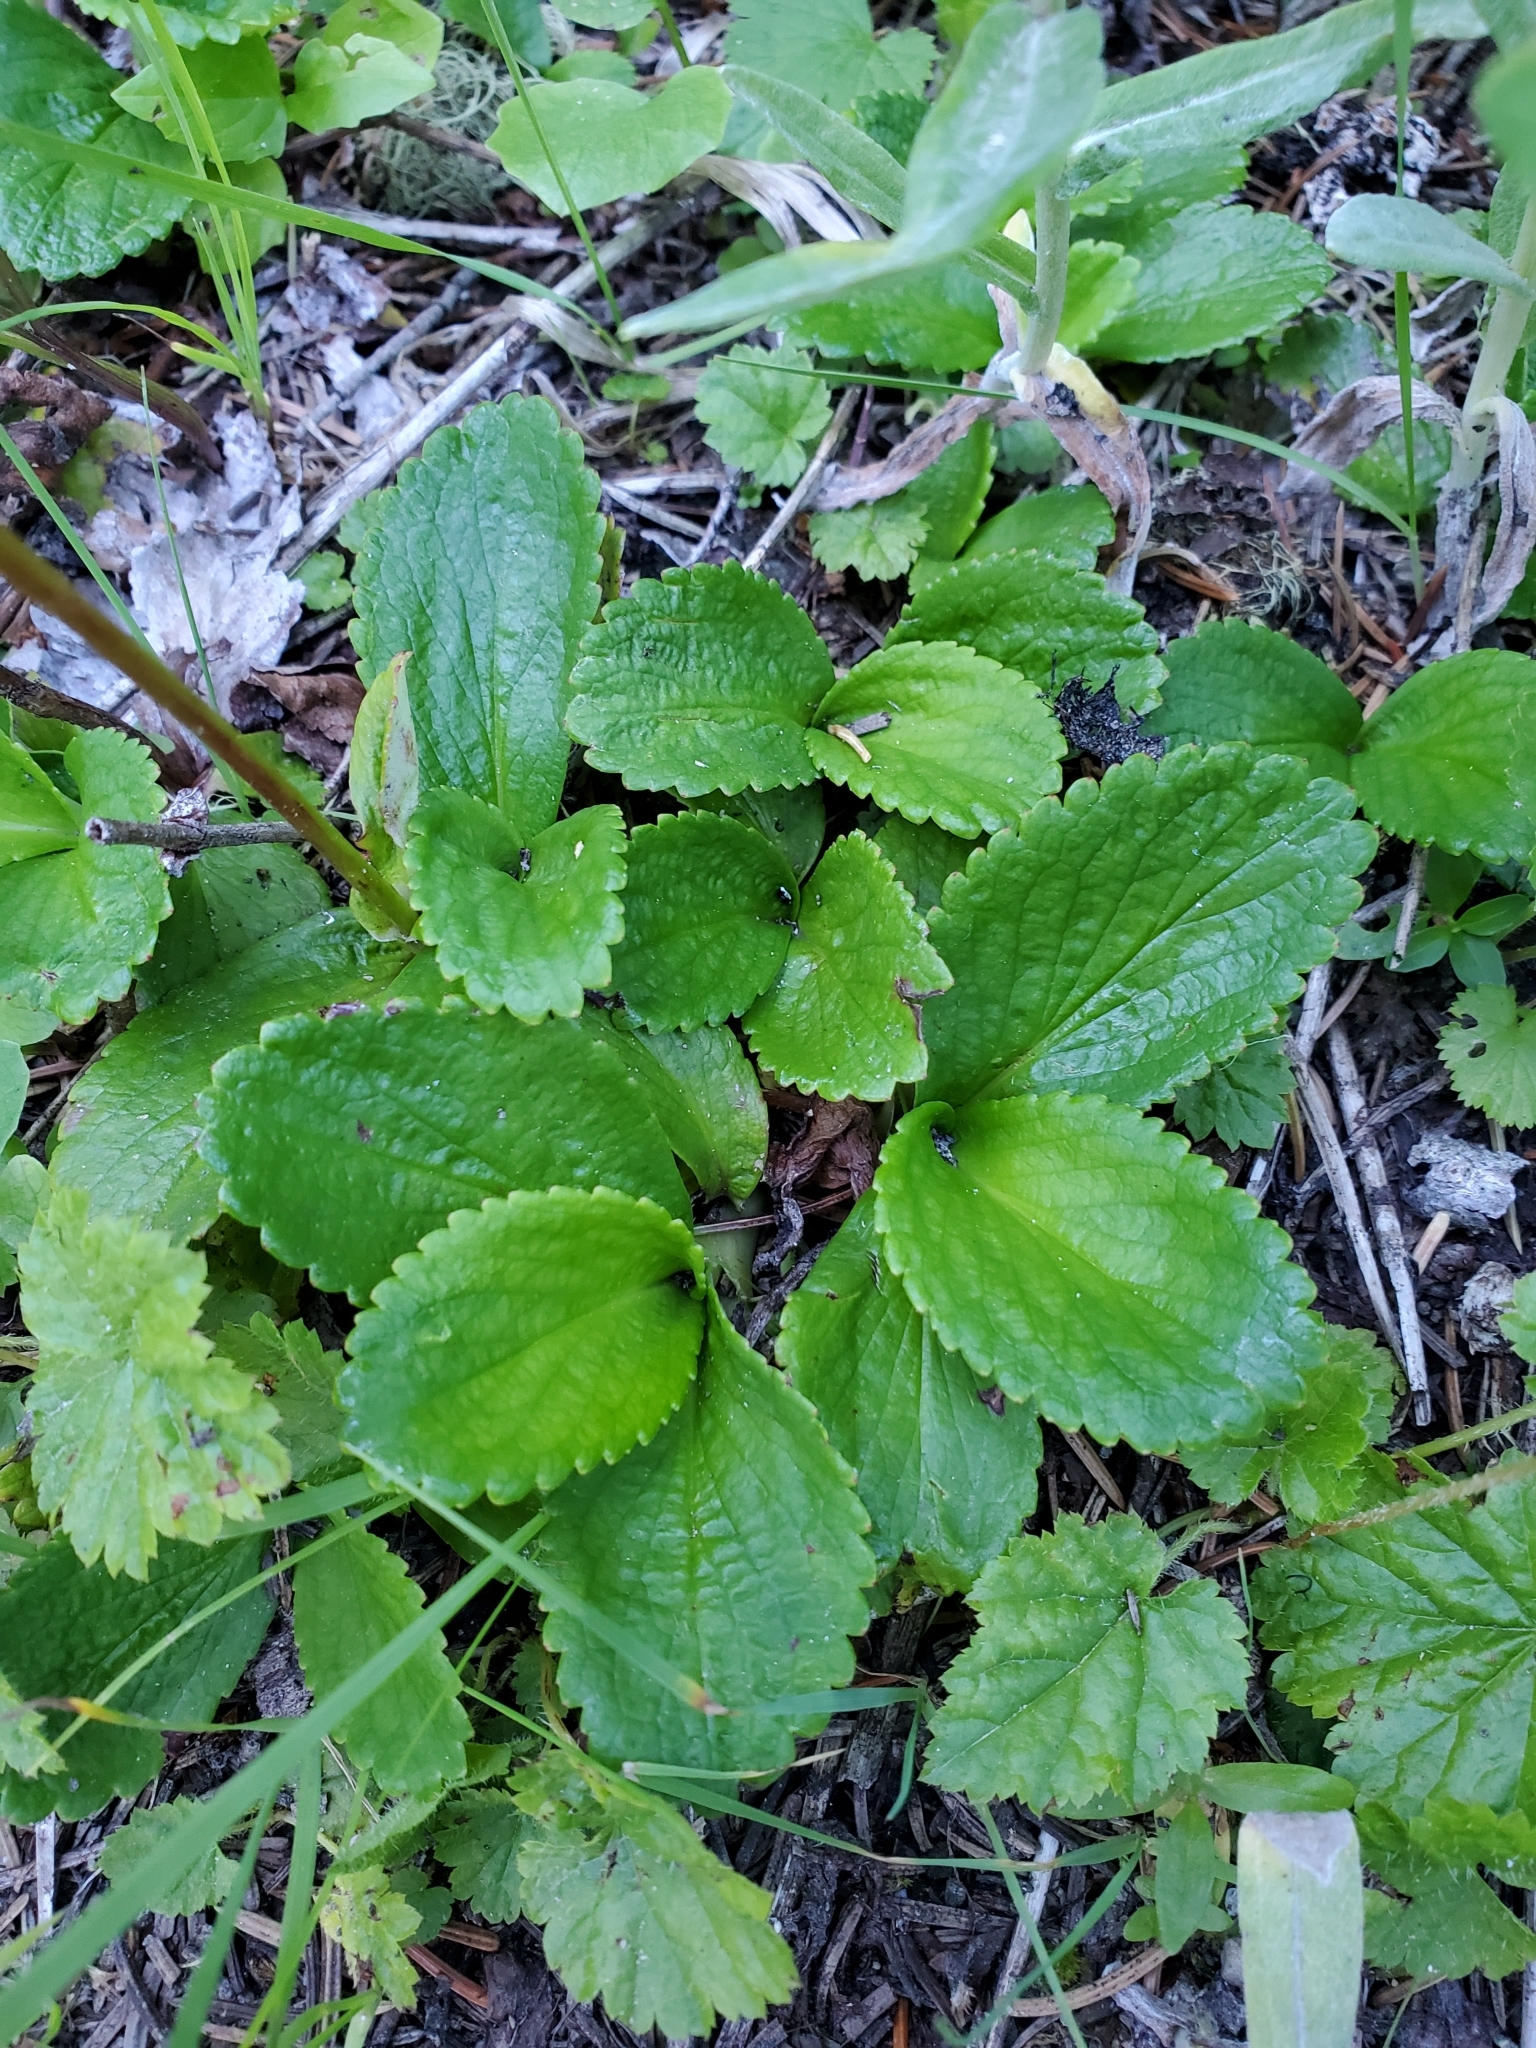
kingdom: Plantae
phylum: Tracheophyta
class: Magnoliopsida
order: Saxifragales
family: Saxifragaceae
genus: Leptarrhena
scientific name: Leptarrhena pyrolifolia
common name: Leatherleaf-saxifrage
